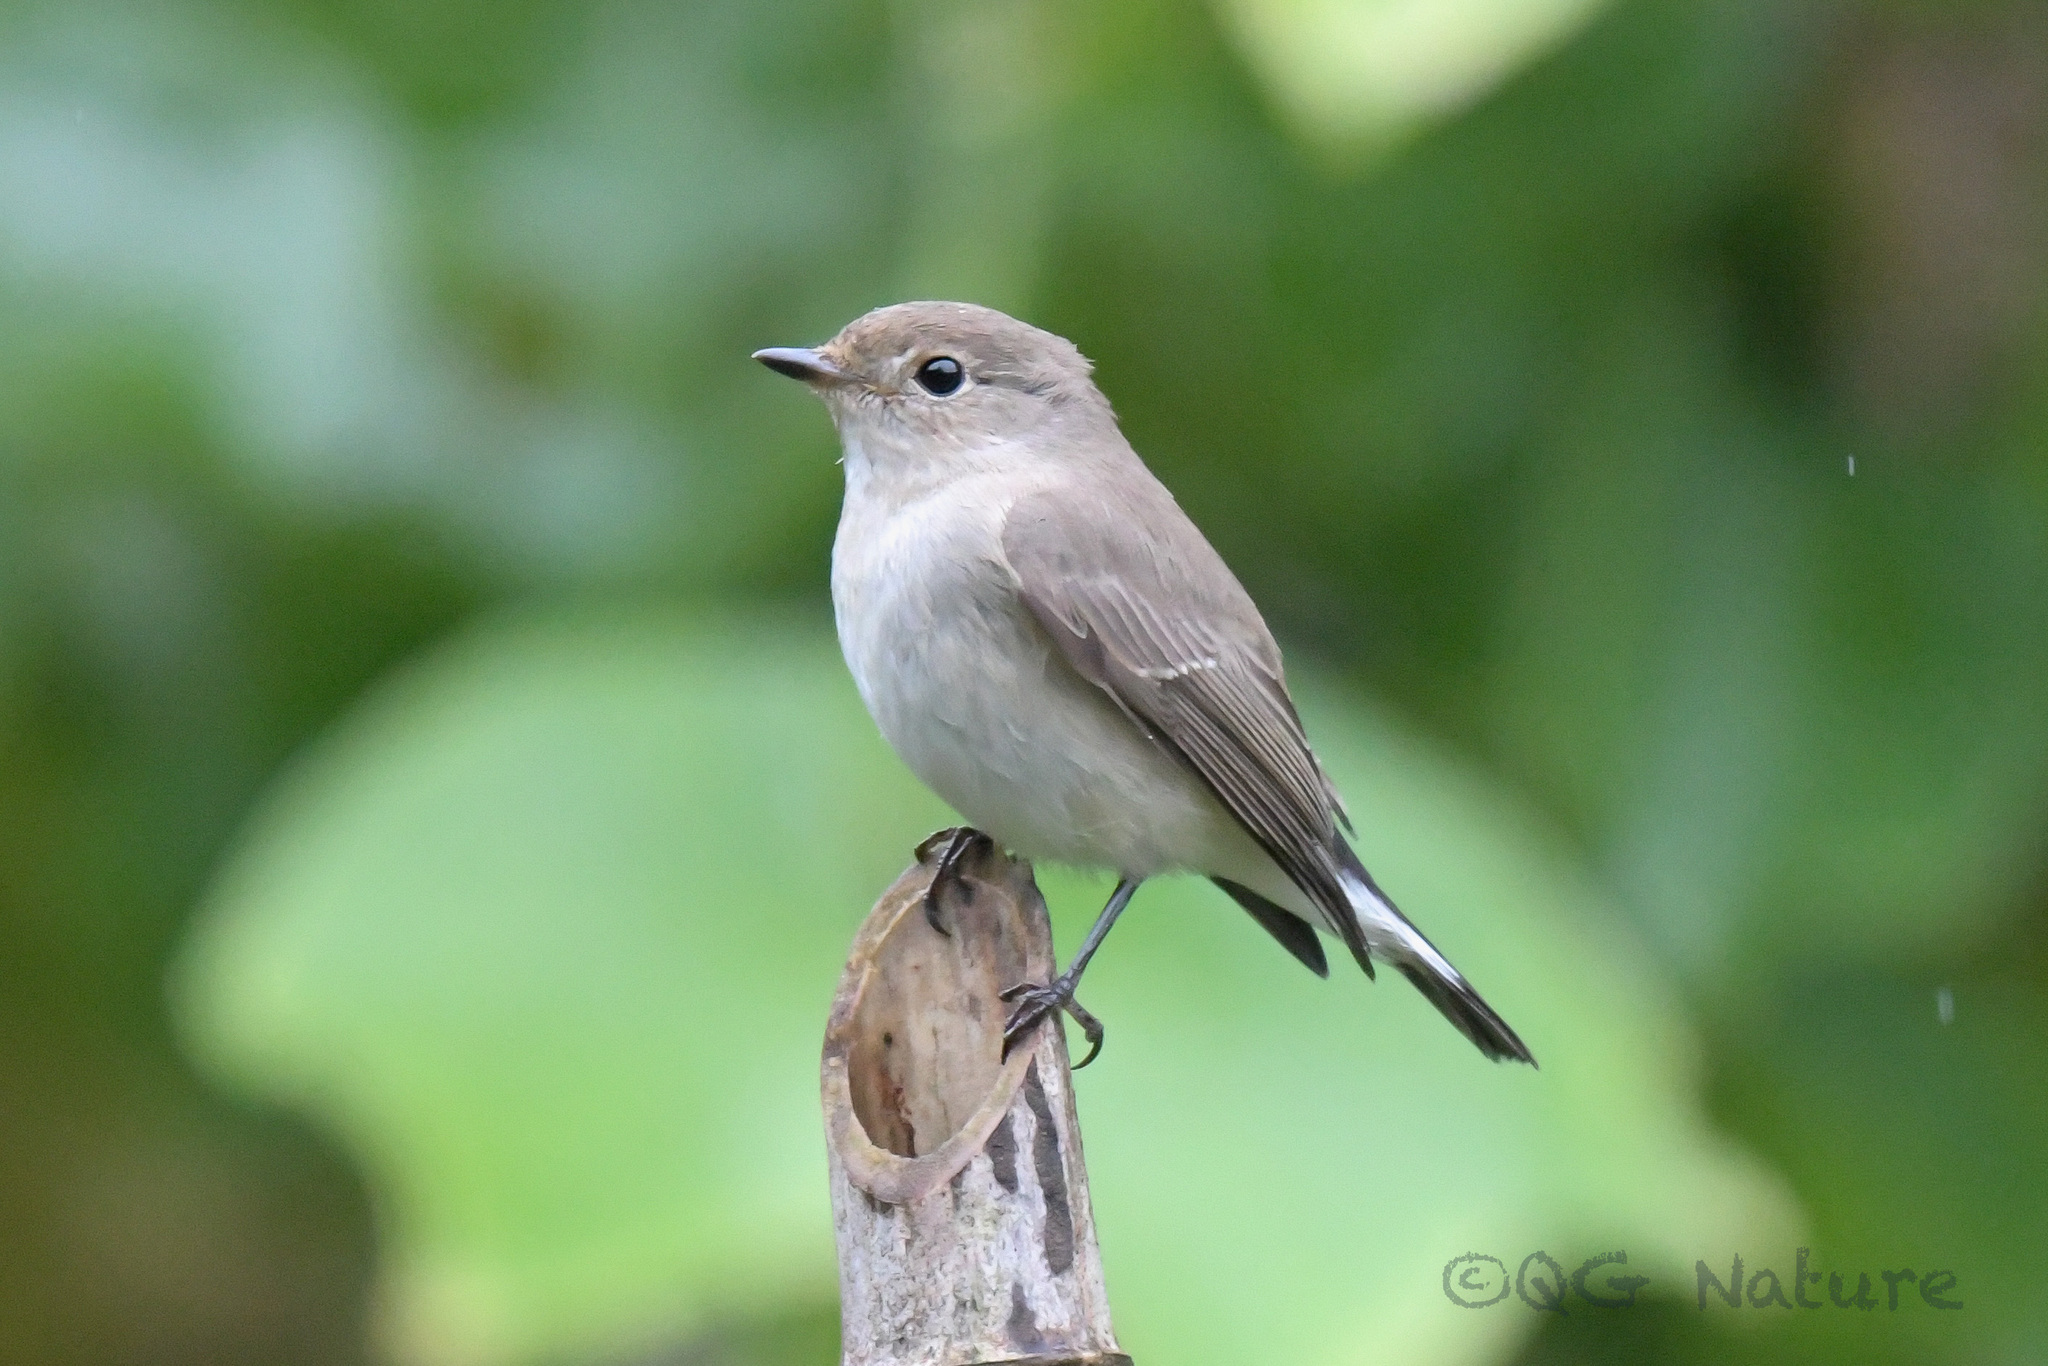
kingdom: Animalia
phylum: Chordata
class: Aves
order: Passeriformes
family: Muscicapidae
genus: Ficedula
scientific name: Ficedula albicilla
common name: Taiga flycatcher
